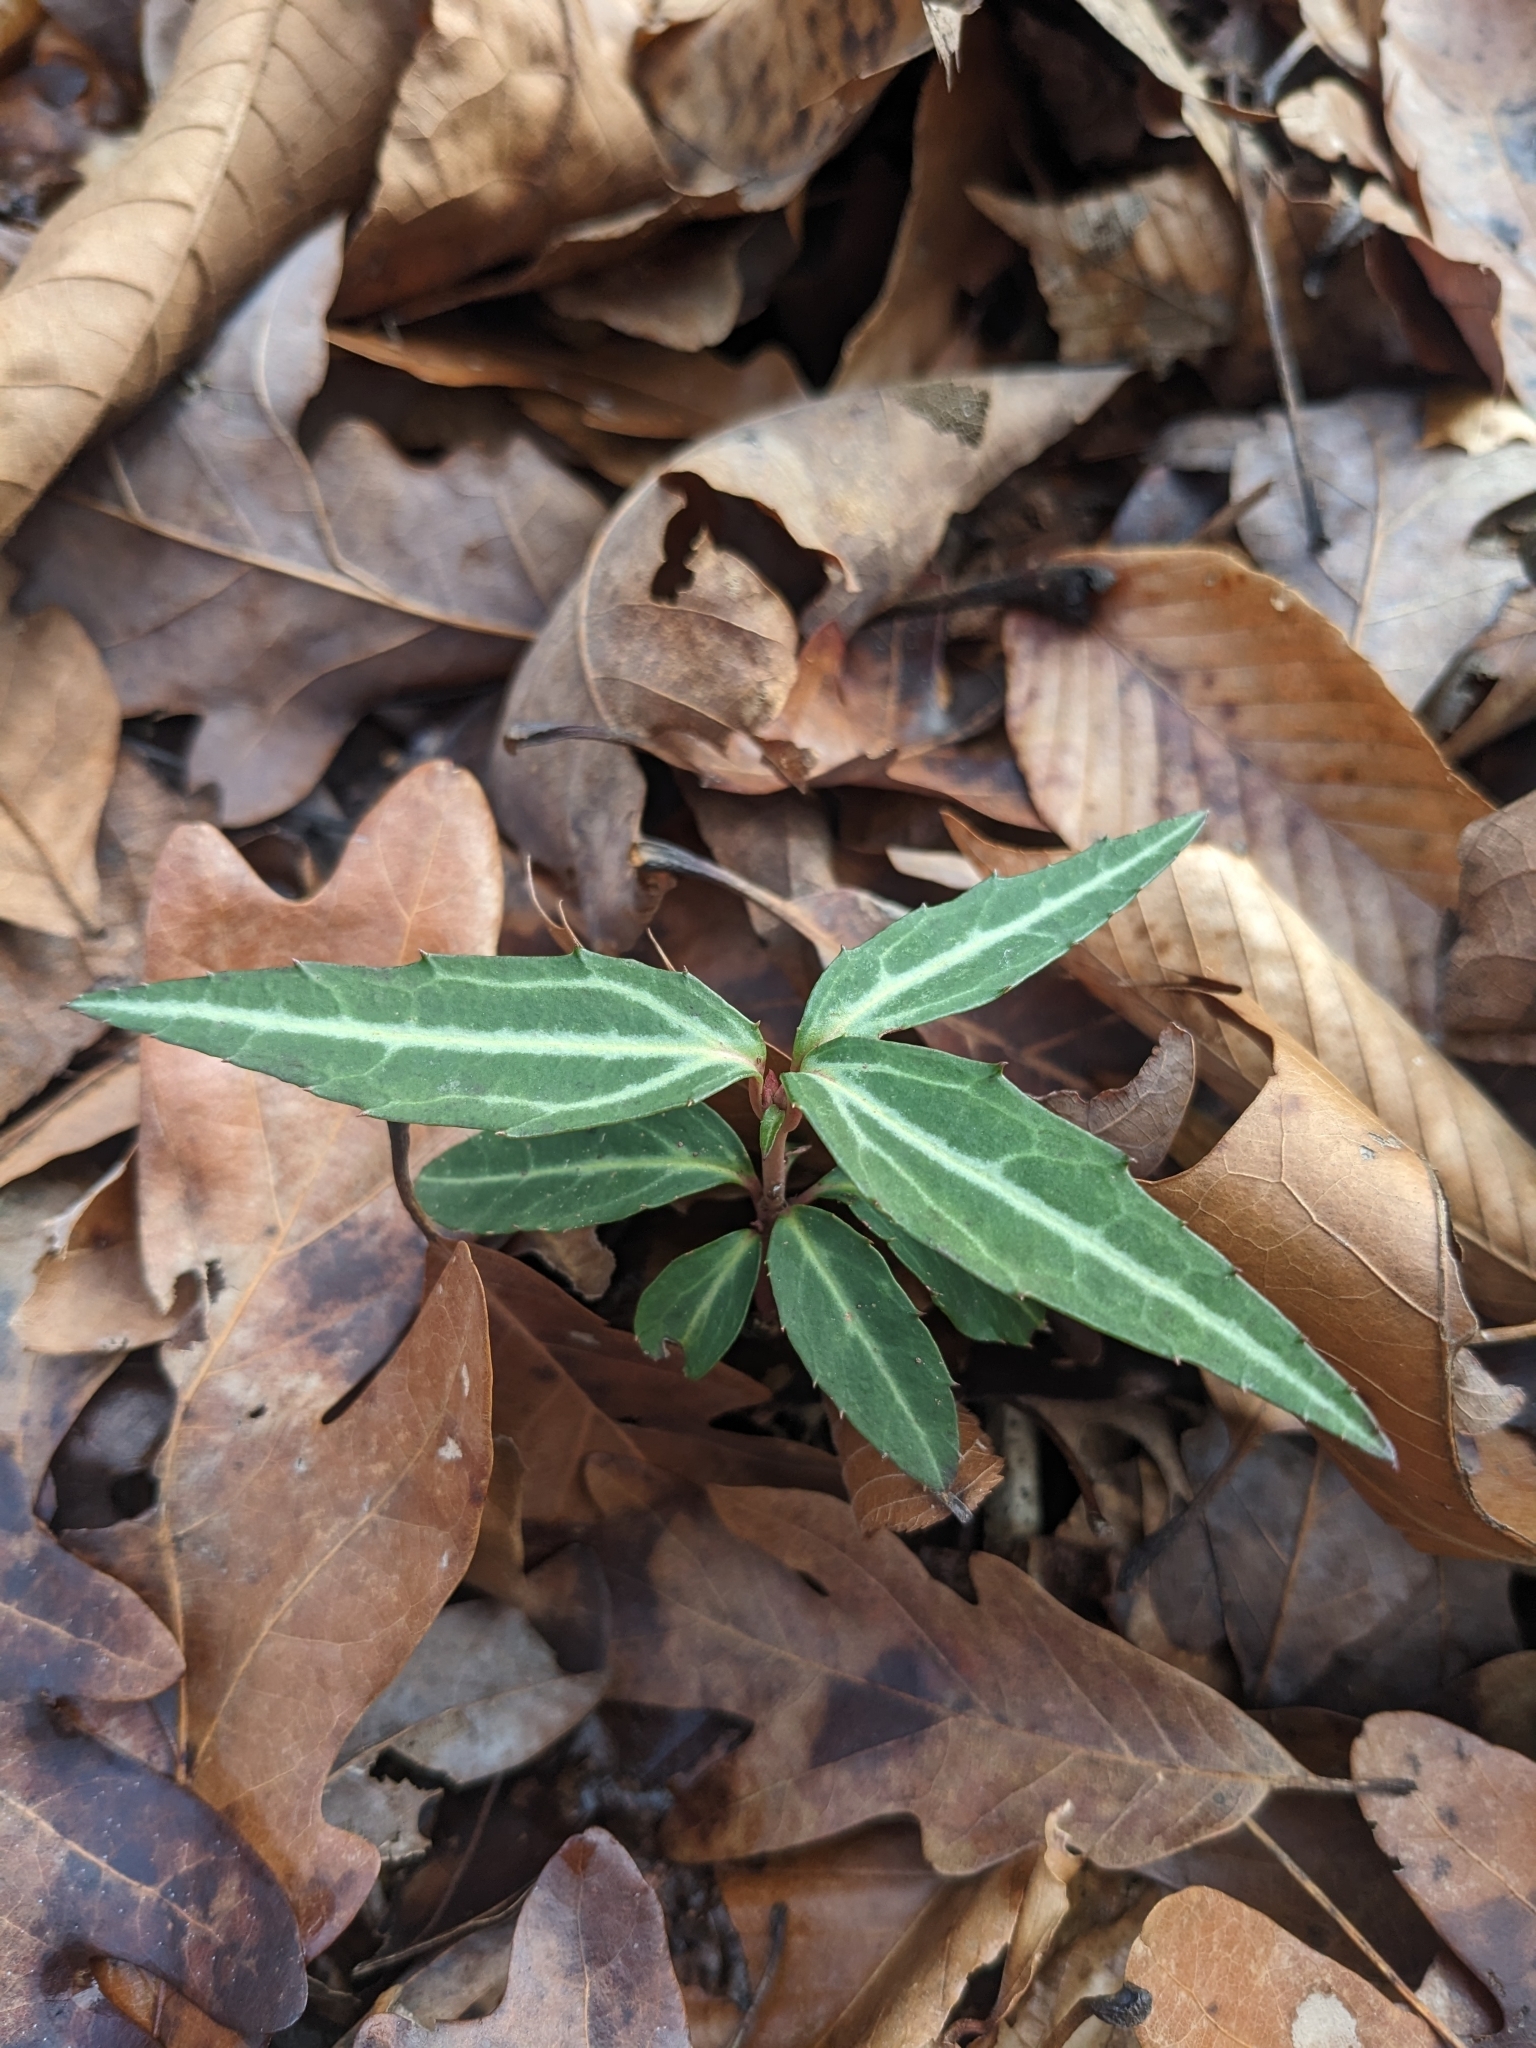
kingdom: Plantae
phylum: Tracheophyta
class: Magnoliopsida
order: Ericales
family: Ericaceae
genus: Chimaphila
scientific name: Chimaphila maculata
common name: Spotted pipsissewa
